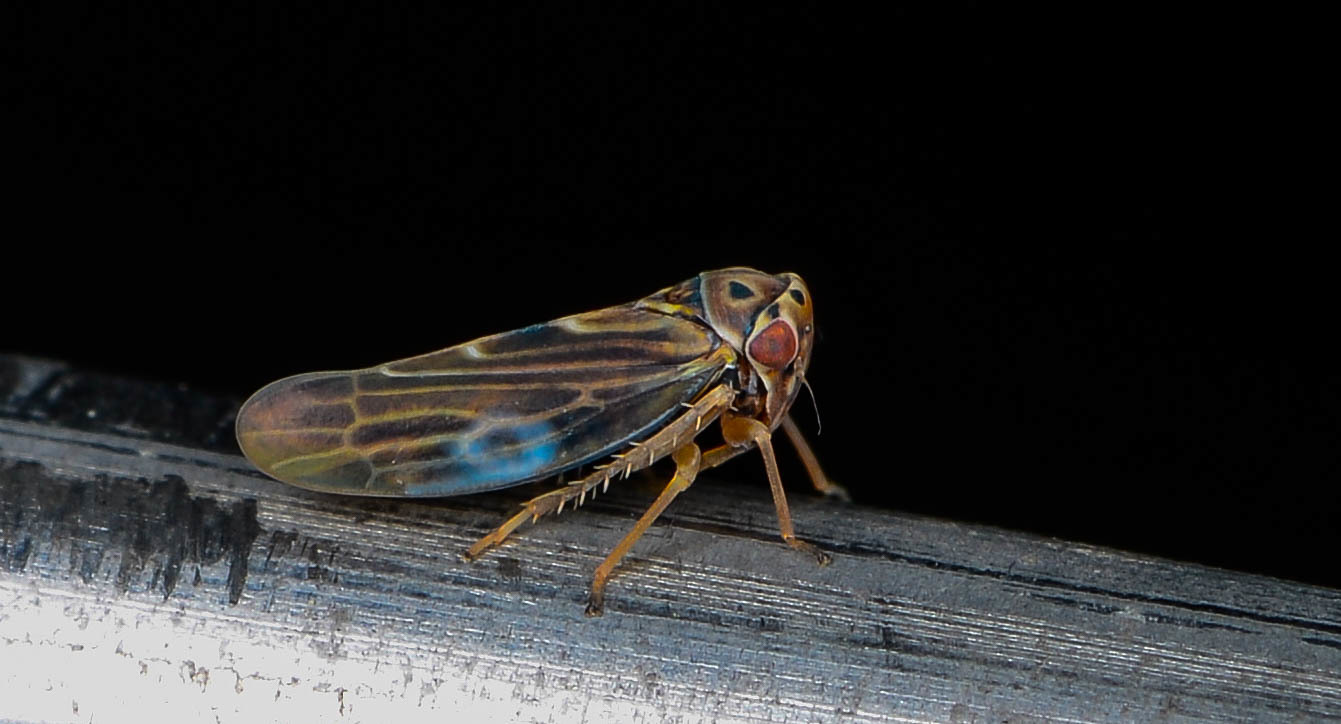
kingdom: Animalia
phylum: Arthropoda
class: Insecta
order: Hemiptera
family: Cicadellidae
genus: Agalliopsis
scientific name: Agalliopsis novella
